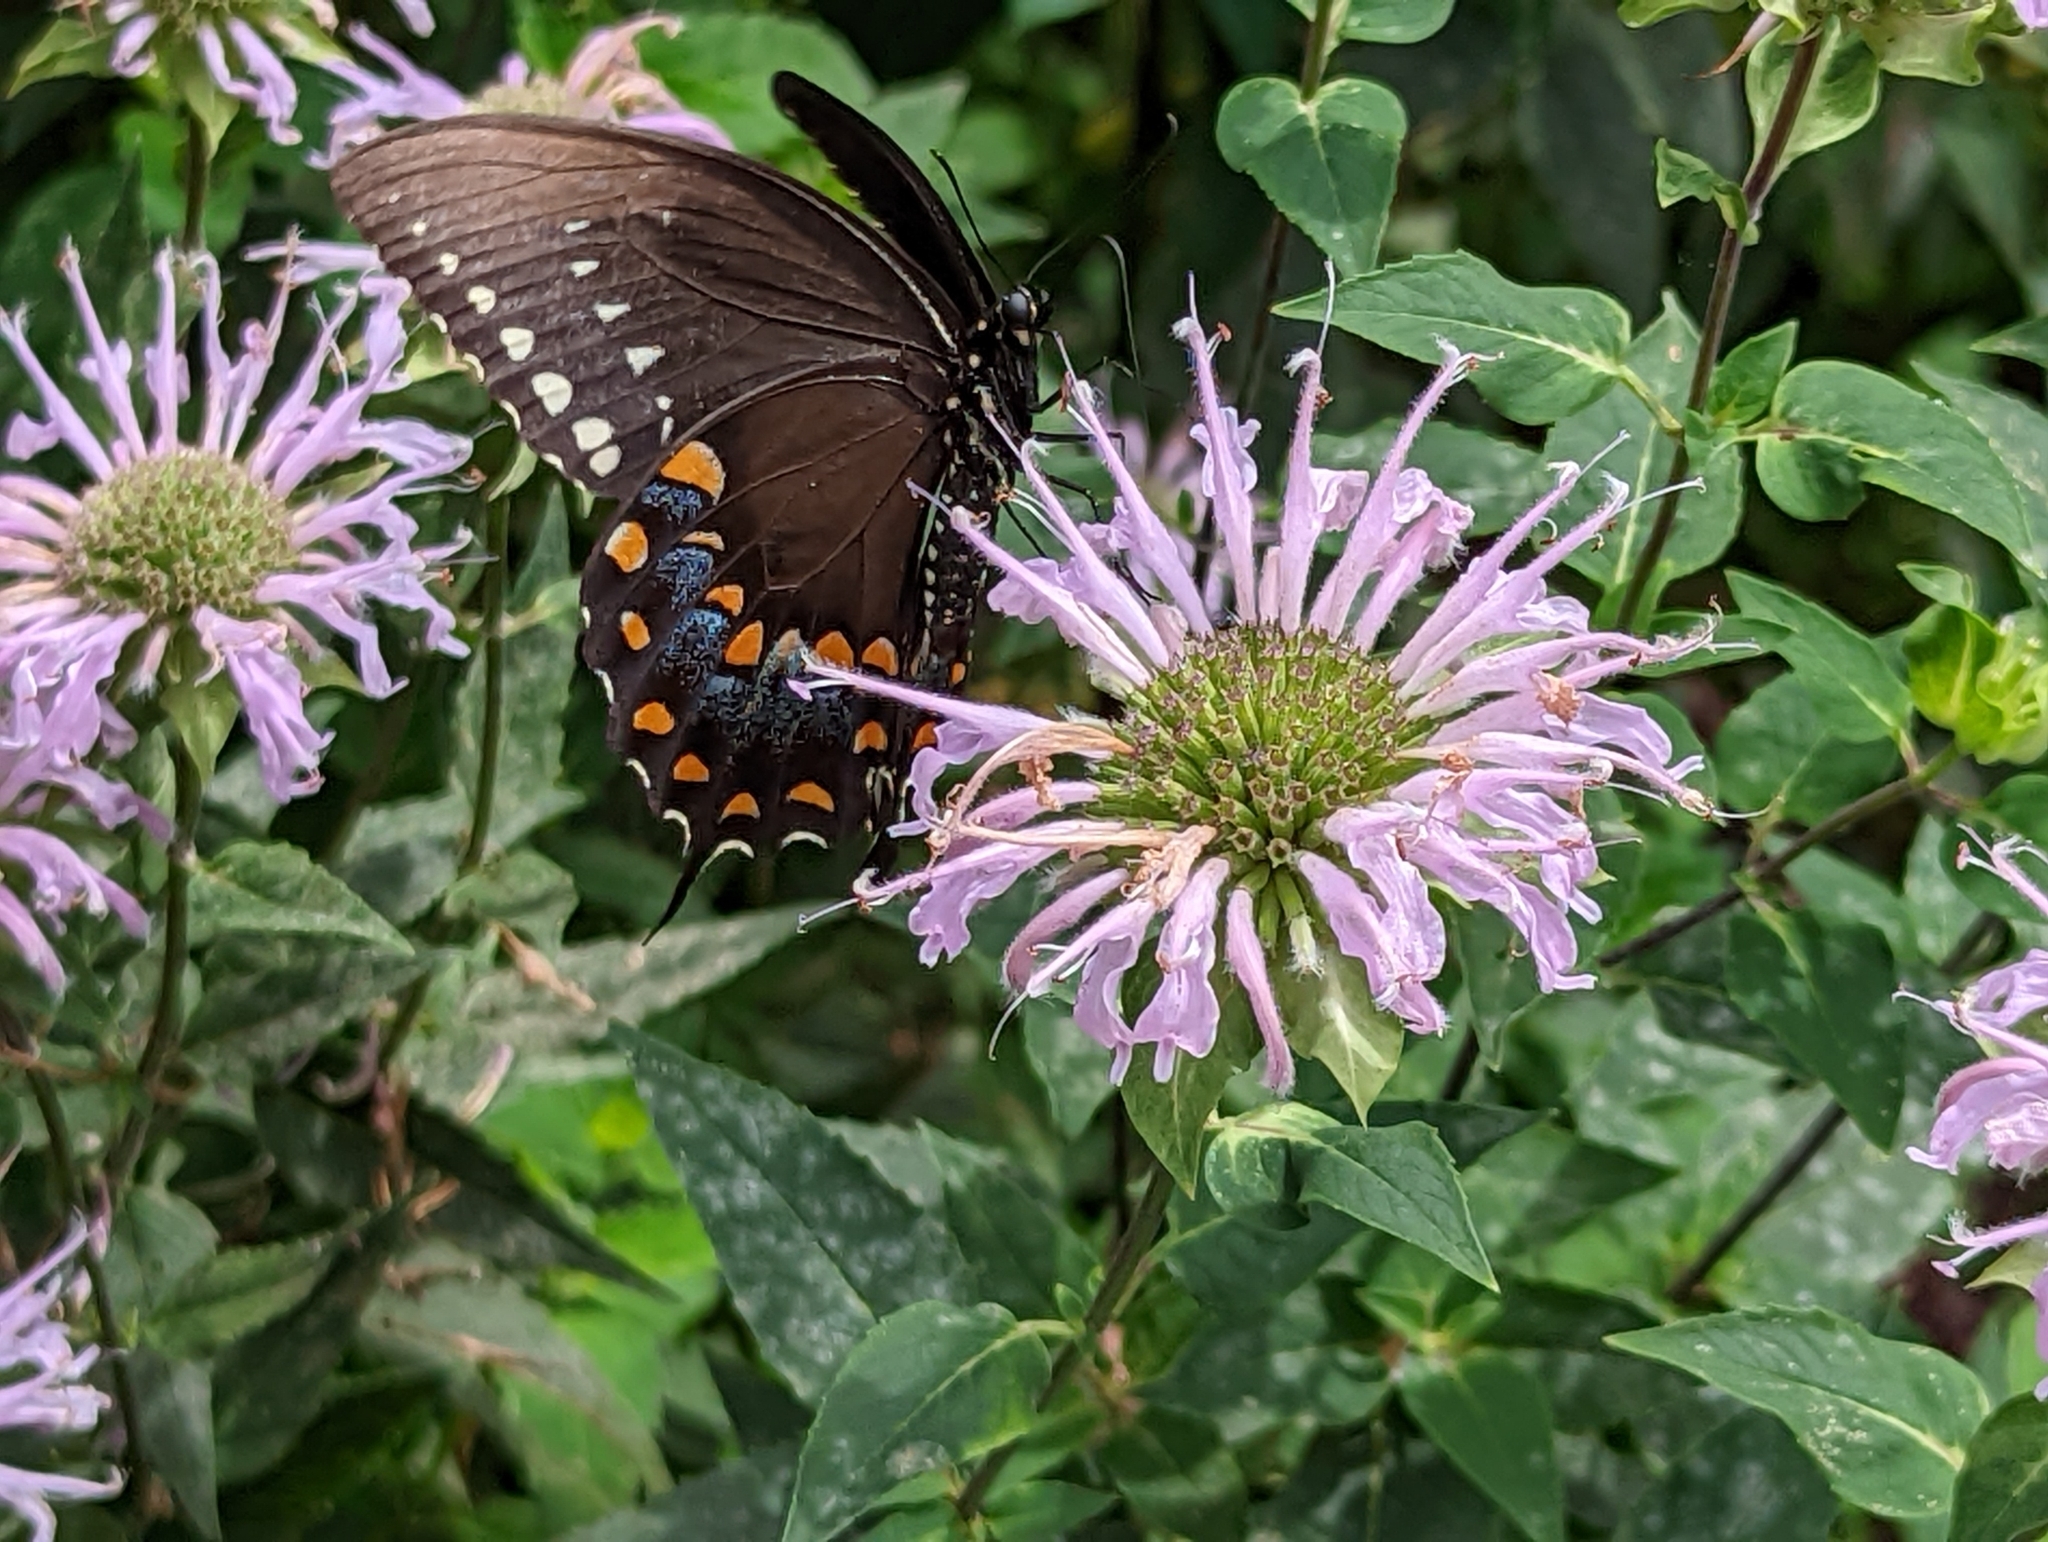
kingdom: Animalia
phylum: Arthropoda
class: Insecta
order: Lepidoptera
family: Papilionidae
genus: Papilio
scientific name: Papilio troilus
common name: Spicebush swallowtail
